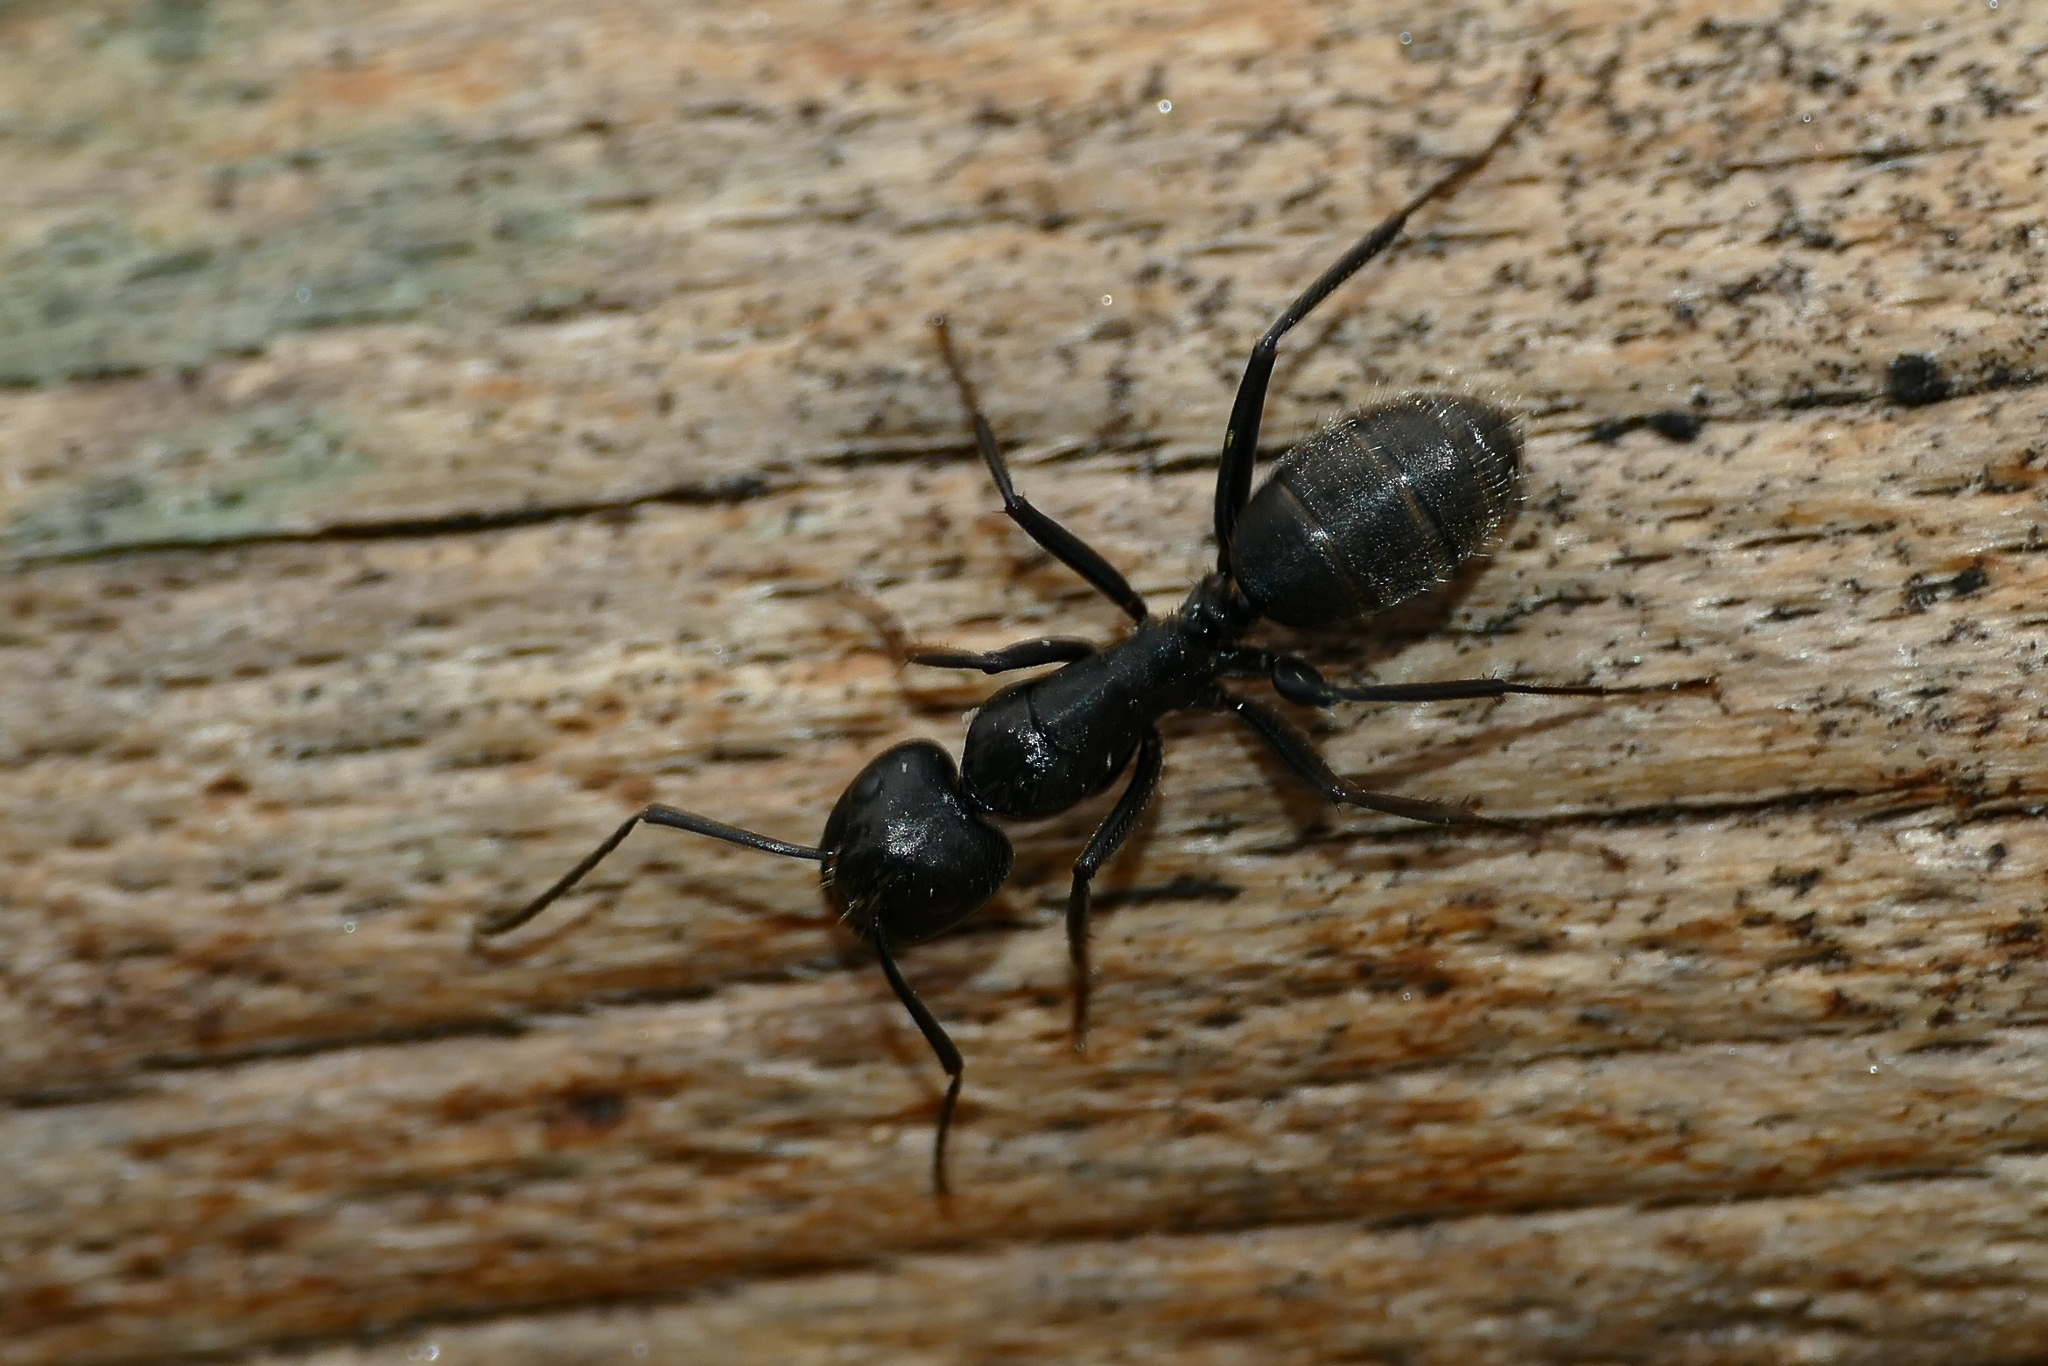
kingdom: Animalia
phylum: Arthropoda
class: Insecta
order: Hymenoptera
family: Formicidae
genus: Camponotus
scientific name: Camponotus vagus
